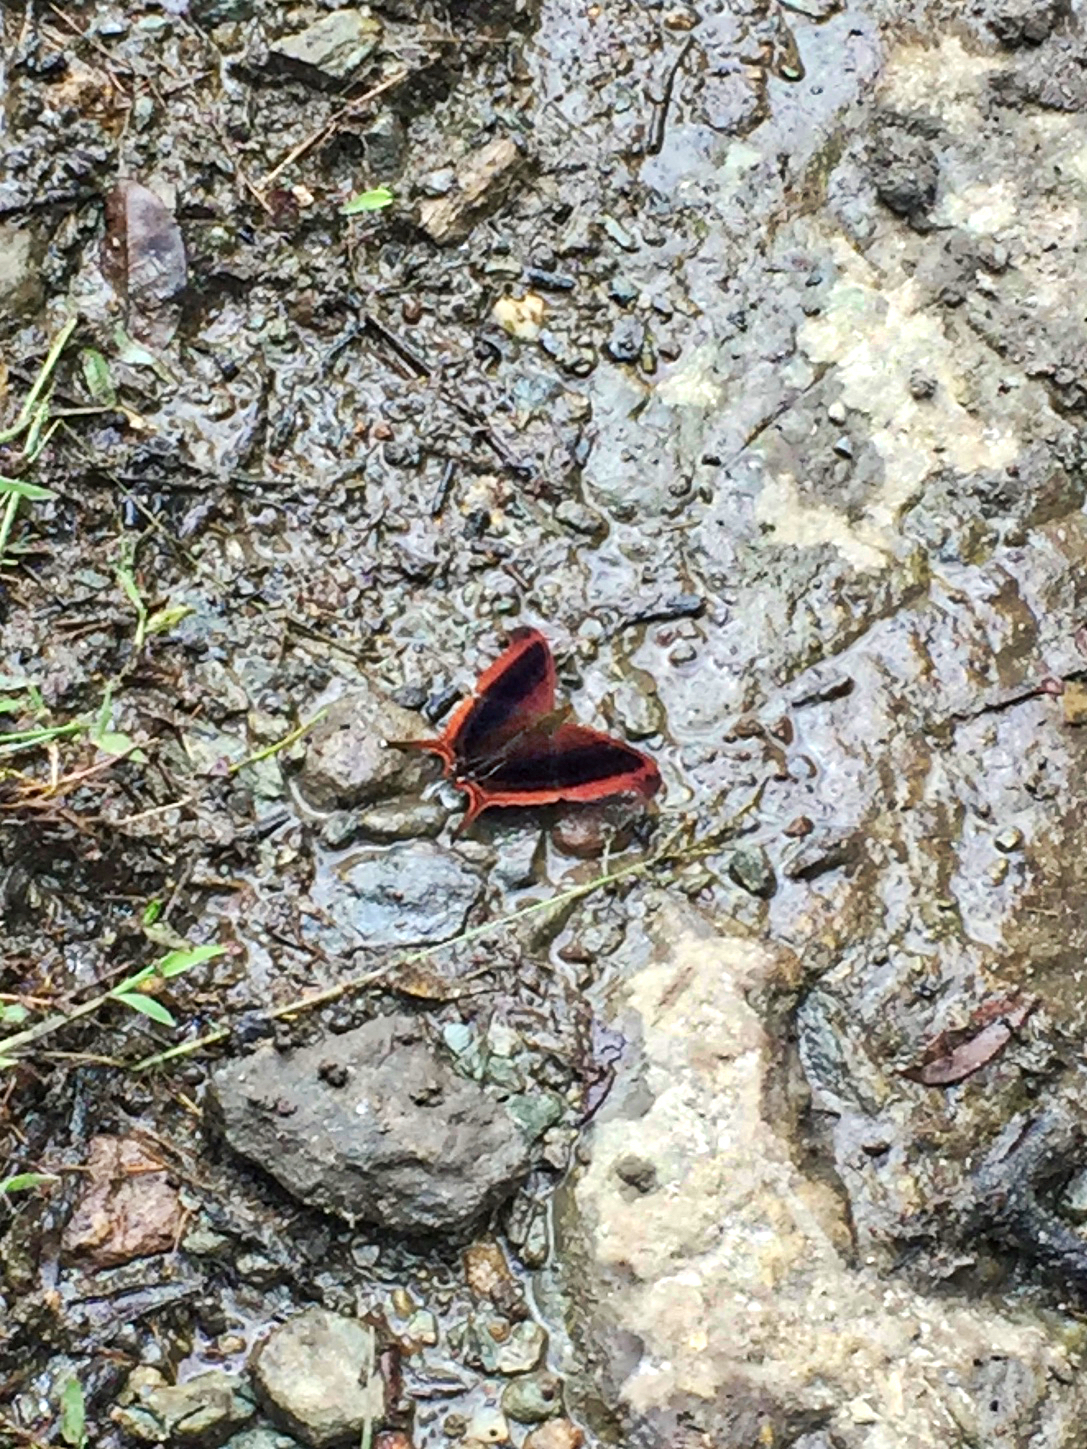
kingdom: Animalia
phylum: Arthropoda
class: Insecta
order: Lepidoptera
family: Nymphalidae
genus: Marpesia
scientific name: Marpesia zerynthia
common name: Waiter daggerwing
